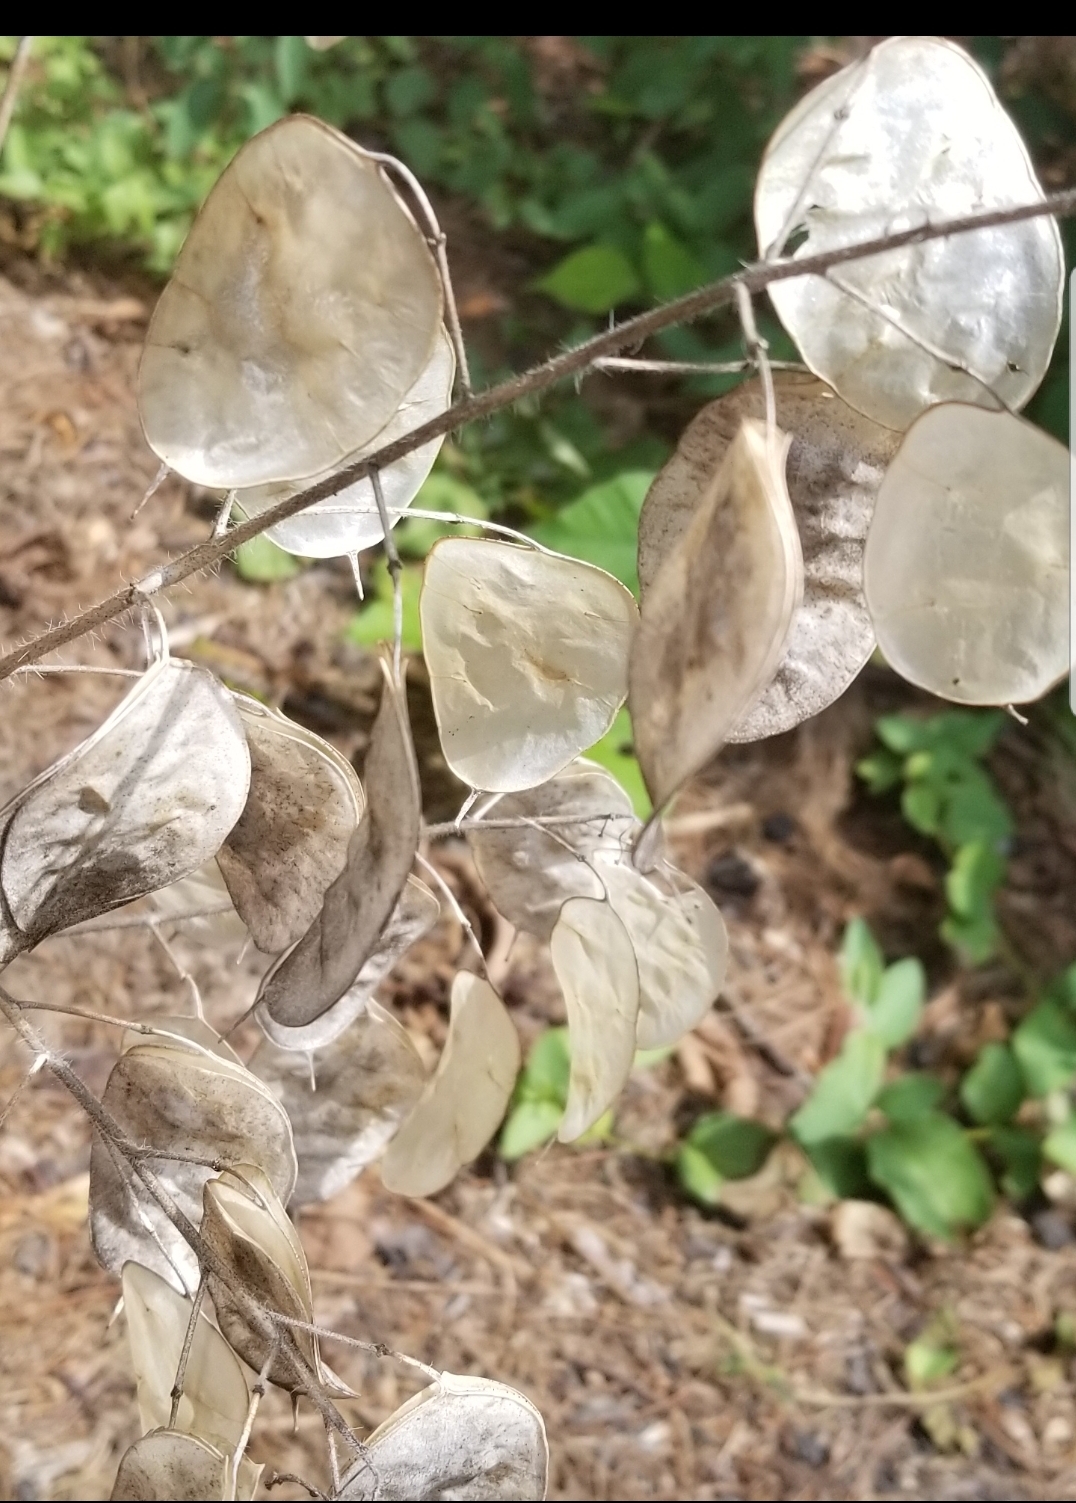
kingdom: Plantae
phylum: Tracheophyta
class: Magnoliopsida
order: Brassicales
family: Brassicaceae
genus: Lunaria
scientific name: Lunaria annua
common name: Honesty
